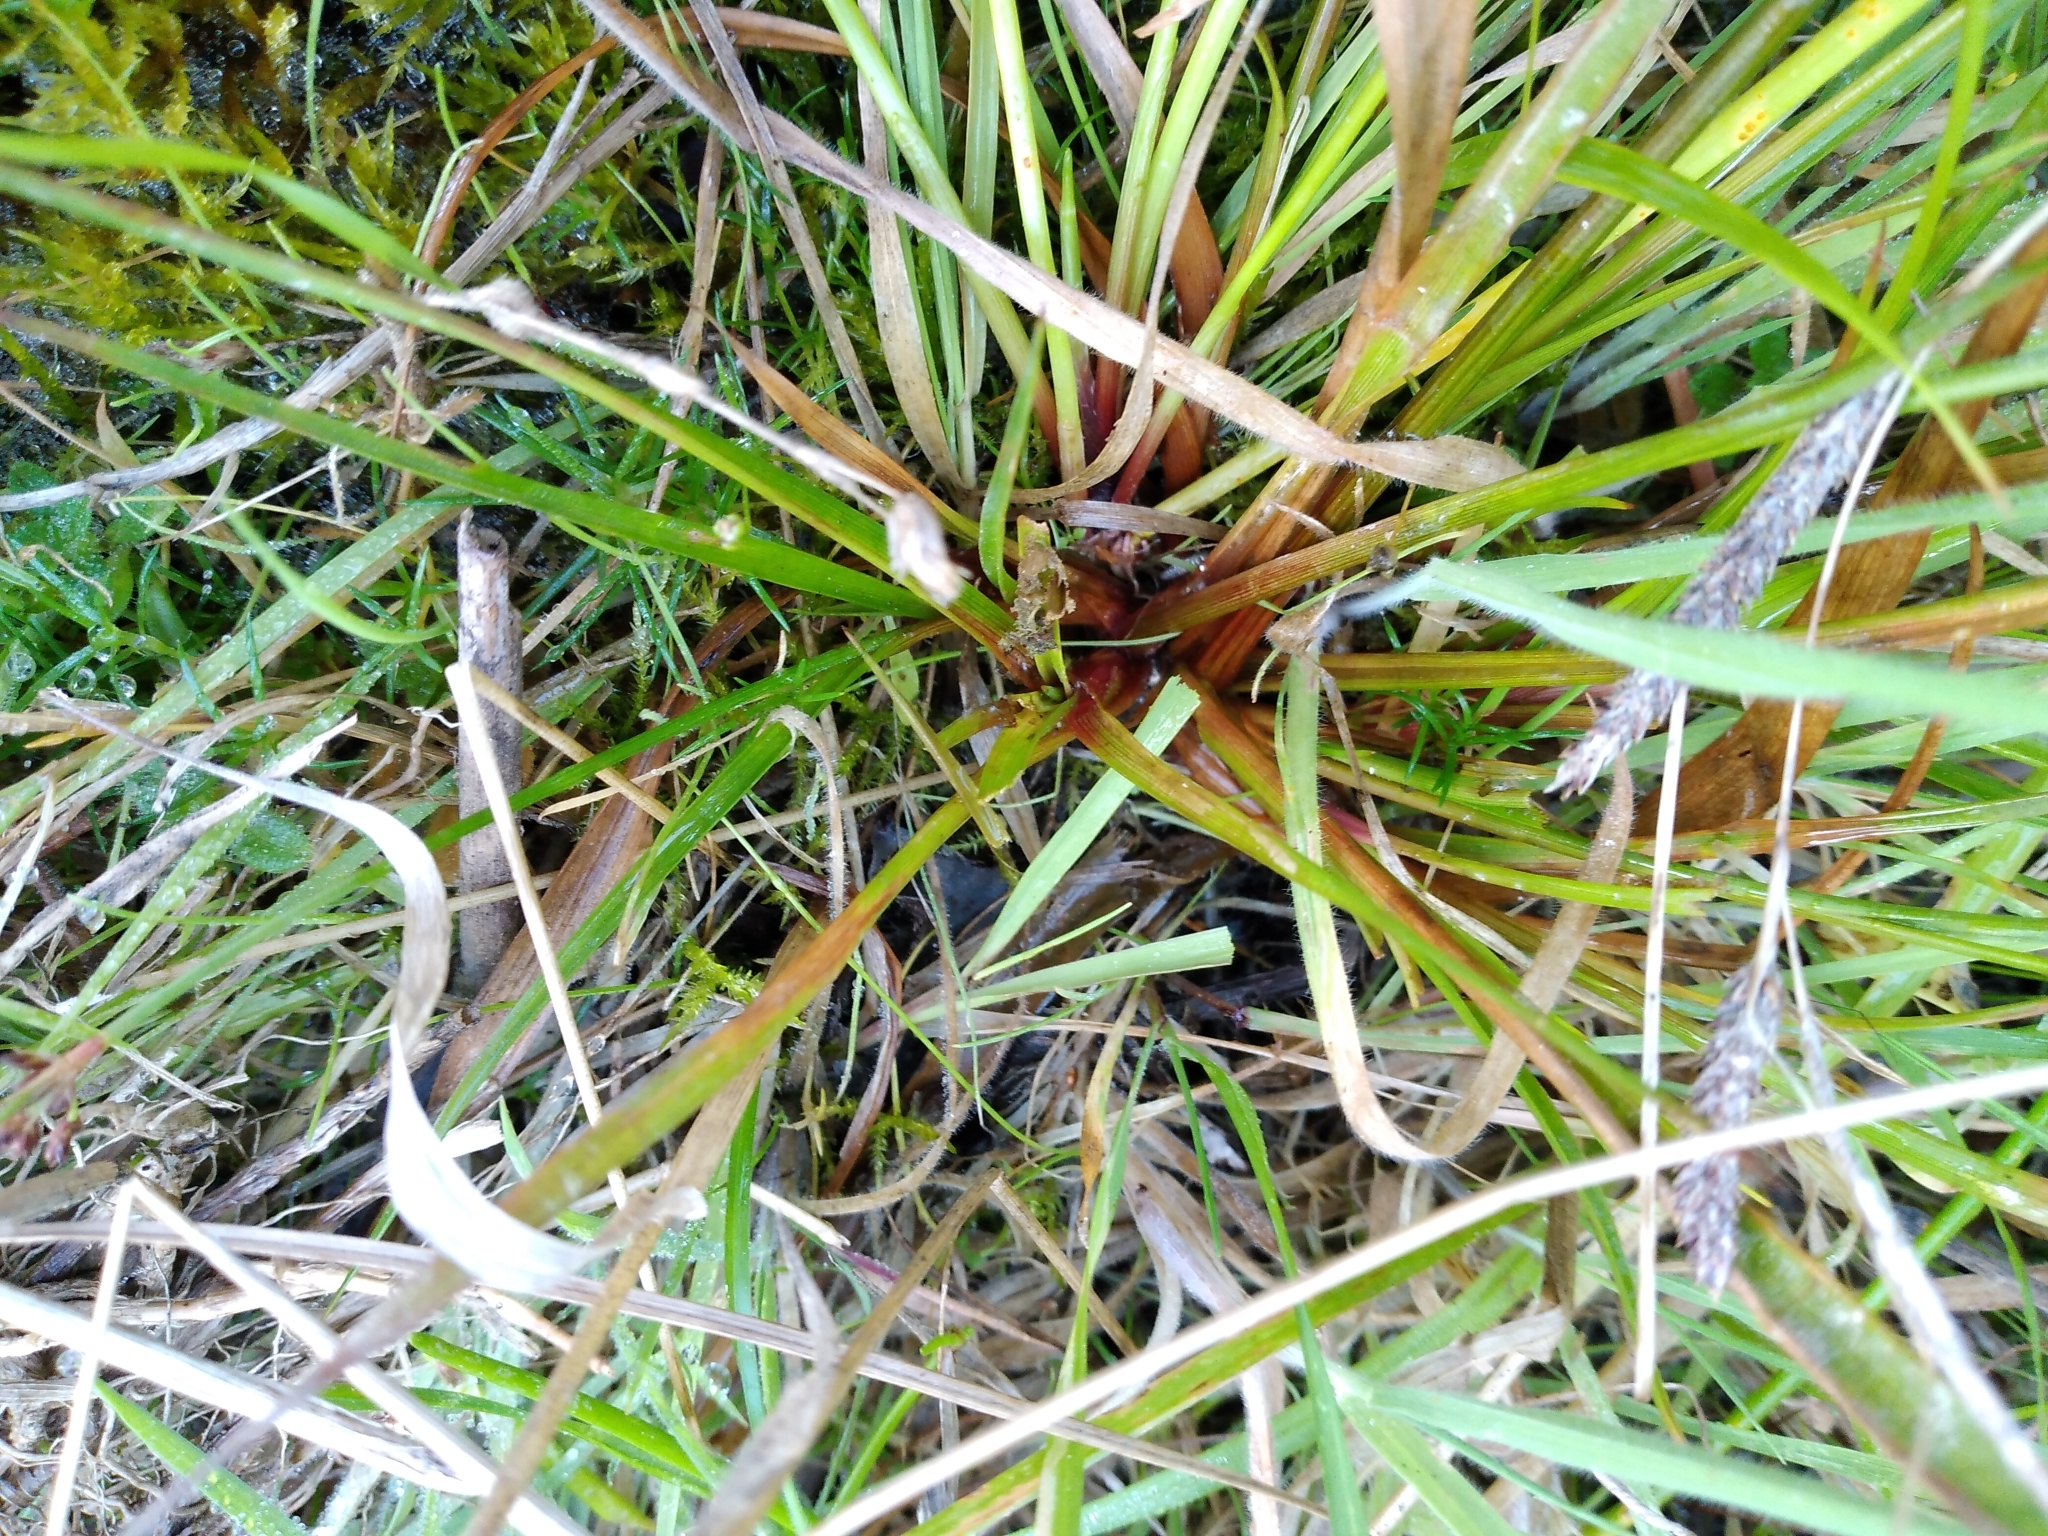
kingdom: Plantae
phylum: Tracheophyta
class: Liliopsida
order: Poales
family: Juncaceae
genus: Juncus
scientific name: Juncus planifolius
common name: Broadleaf rush
